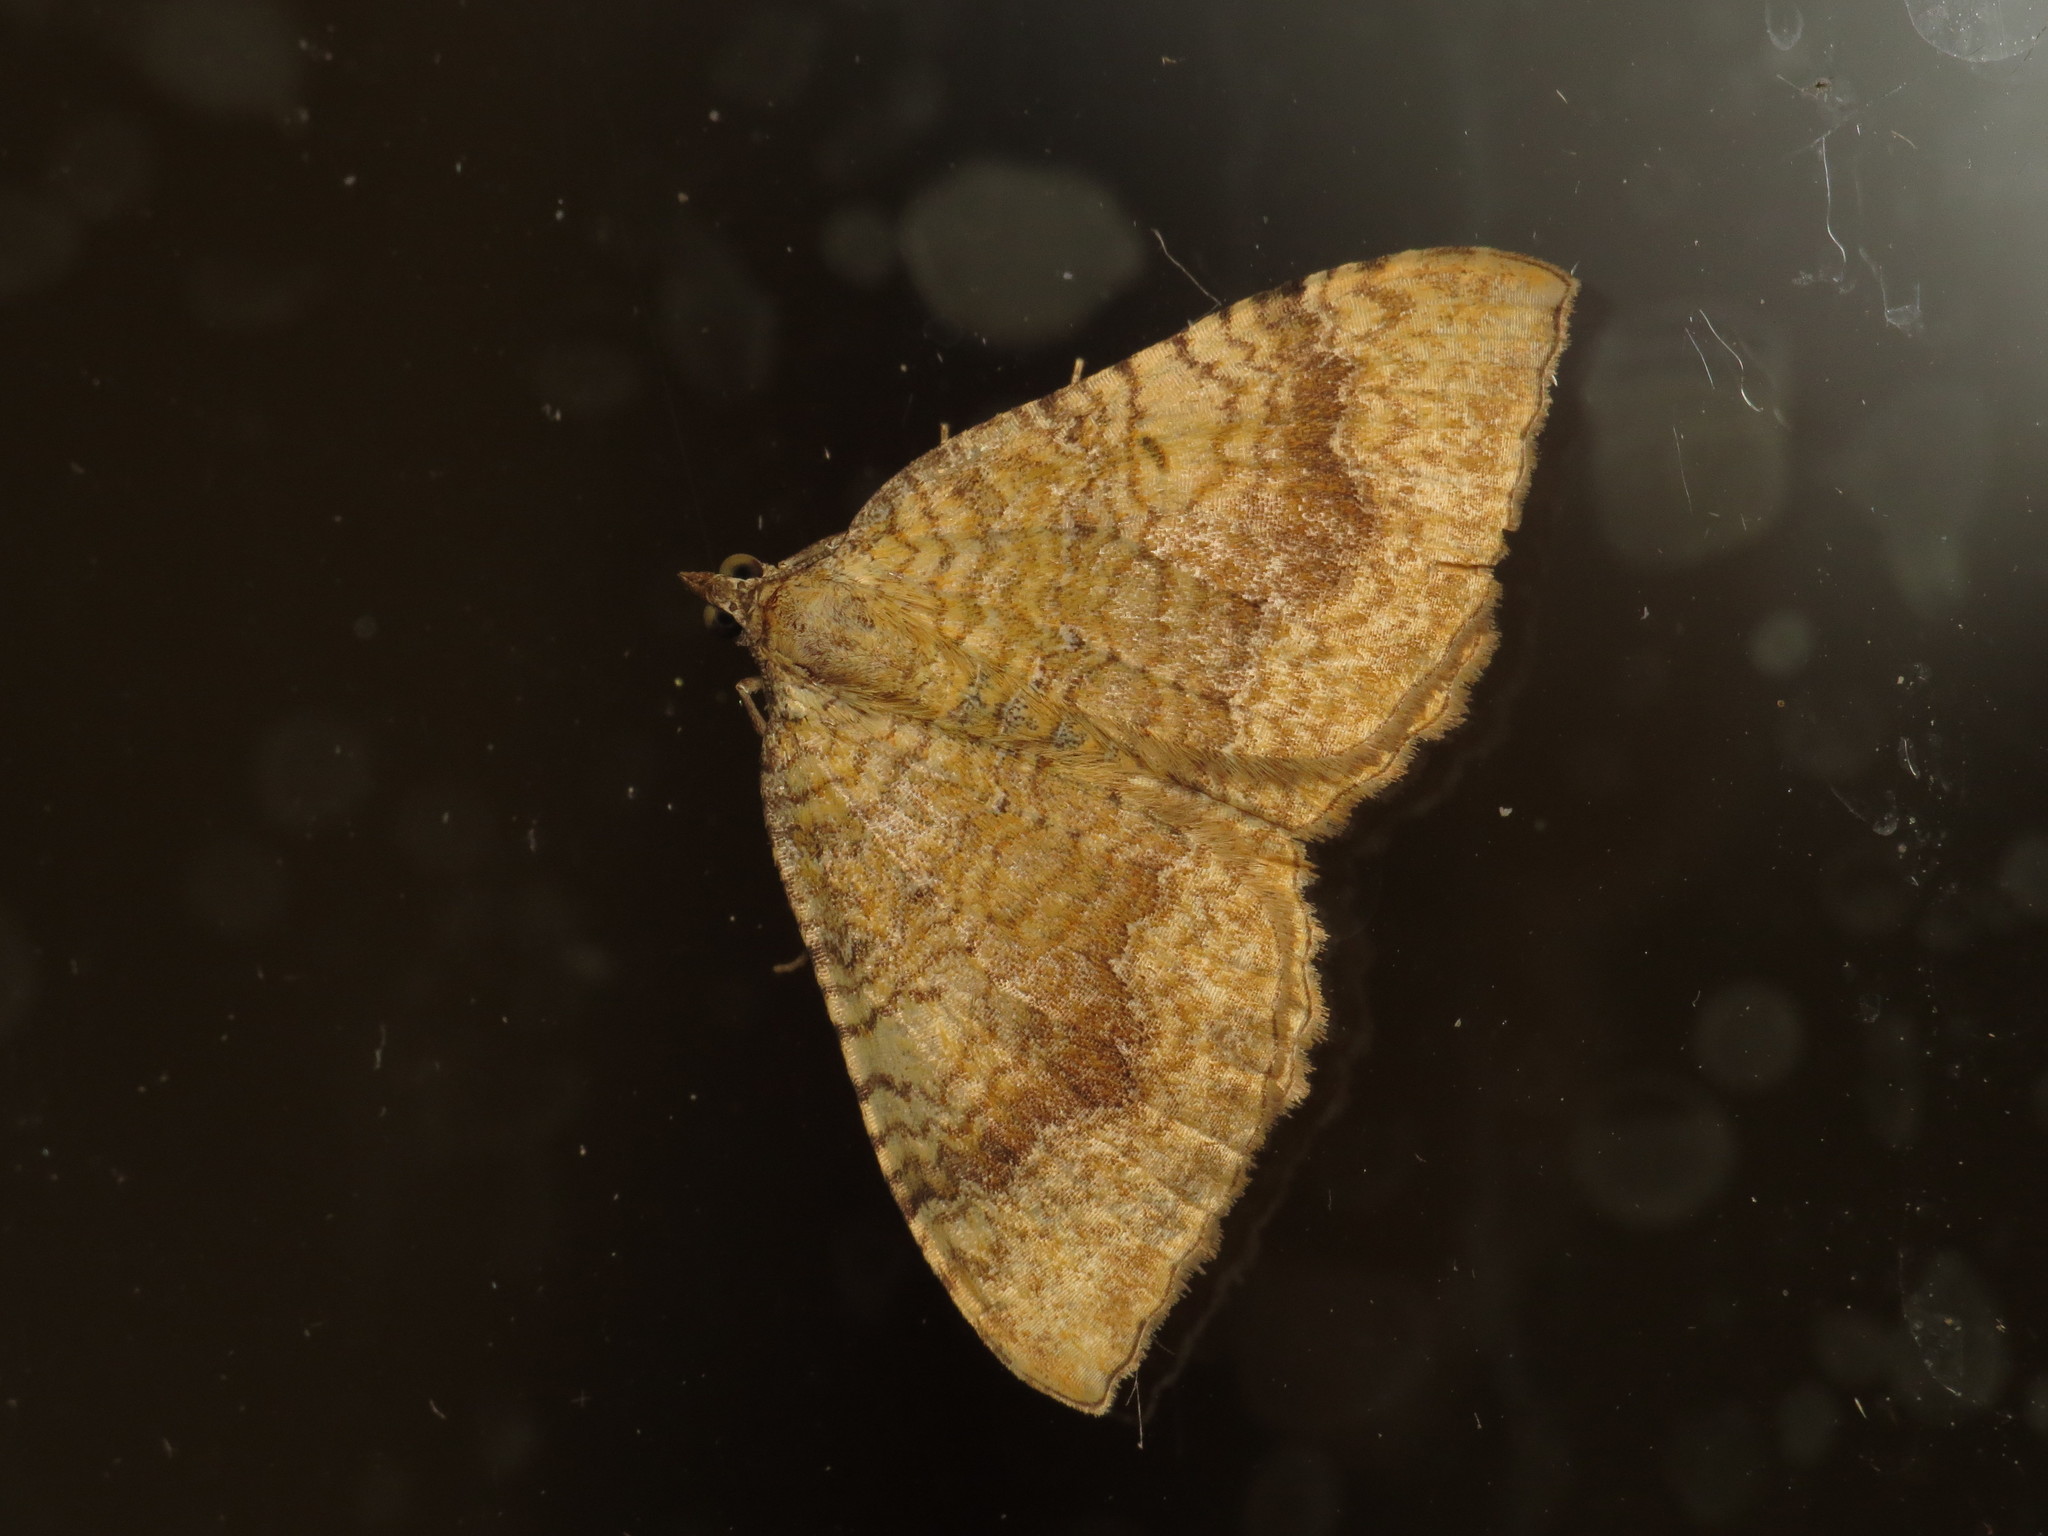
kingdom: Animalia
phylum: Arthropoda
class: Insecta
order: Lepidoptera
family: Geometridae
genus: Camptogramma
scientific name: Camptogramma bilineata
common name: Yellow shell
